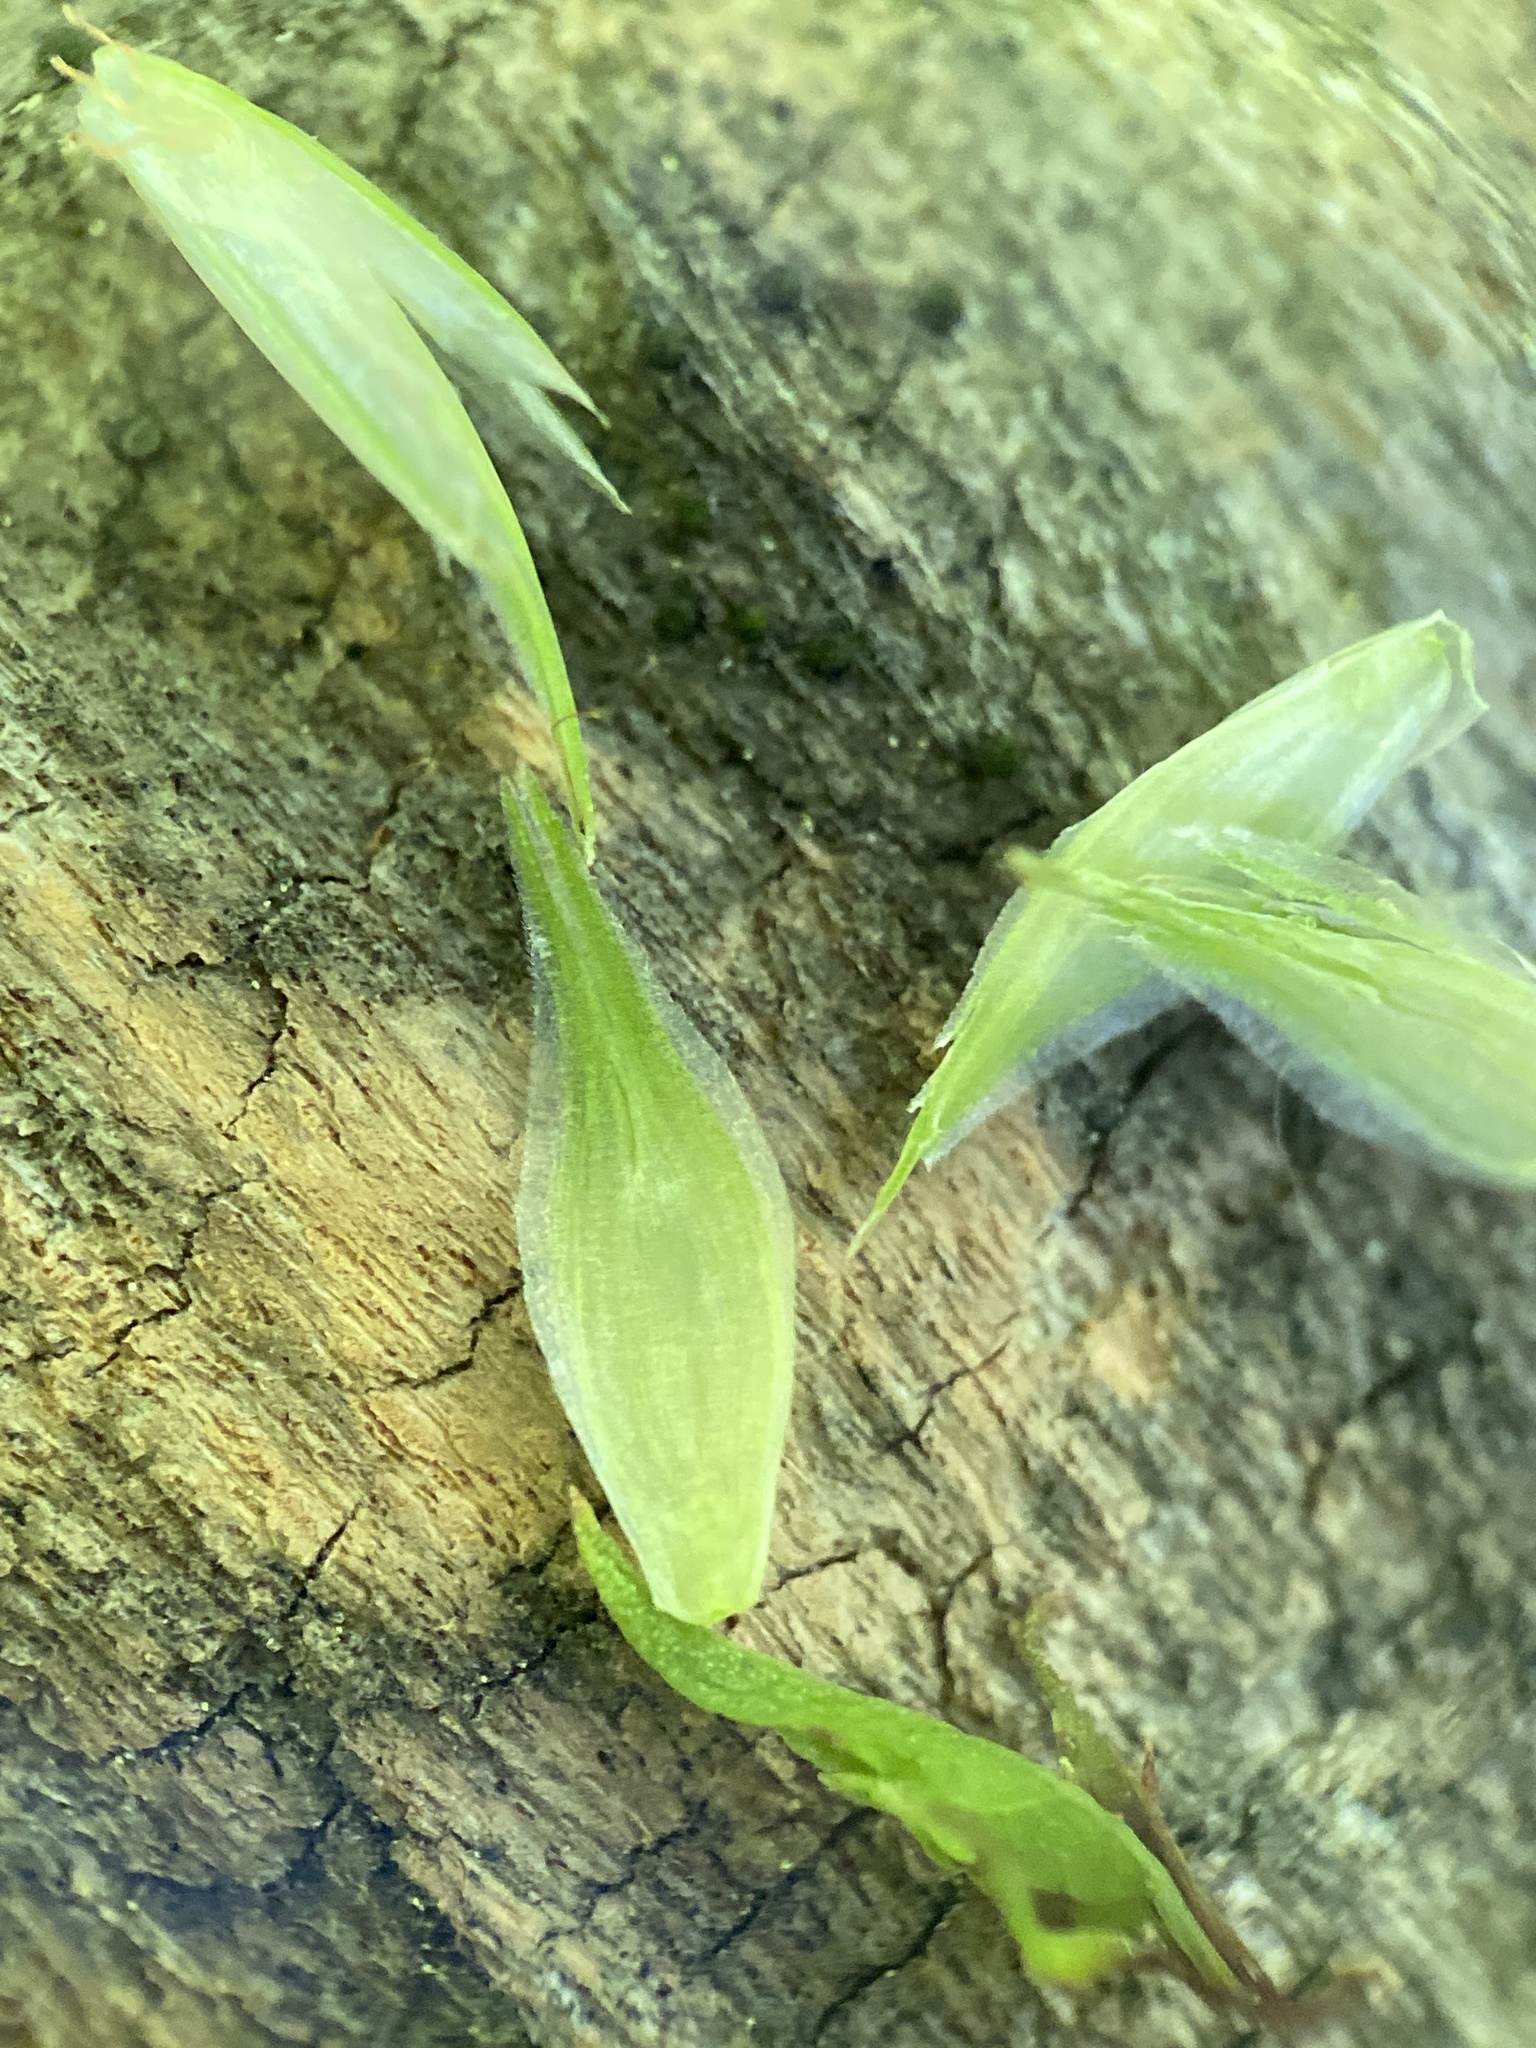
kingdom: Plantae
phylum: Tracheophyta
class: Liliopsida
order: Poales
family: Cyperaceae
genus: Carex
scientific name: Carex muskingumensis
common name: Muskingum sedge
